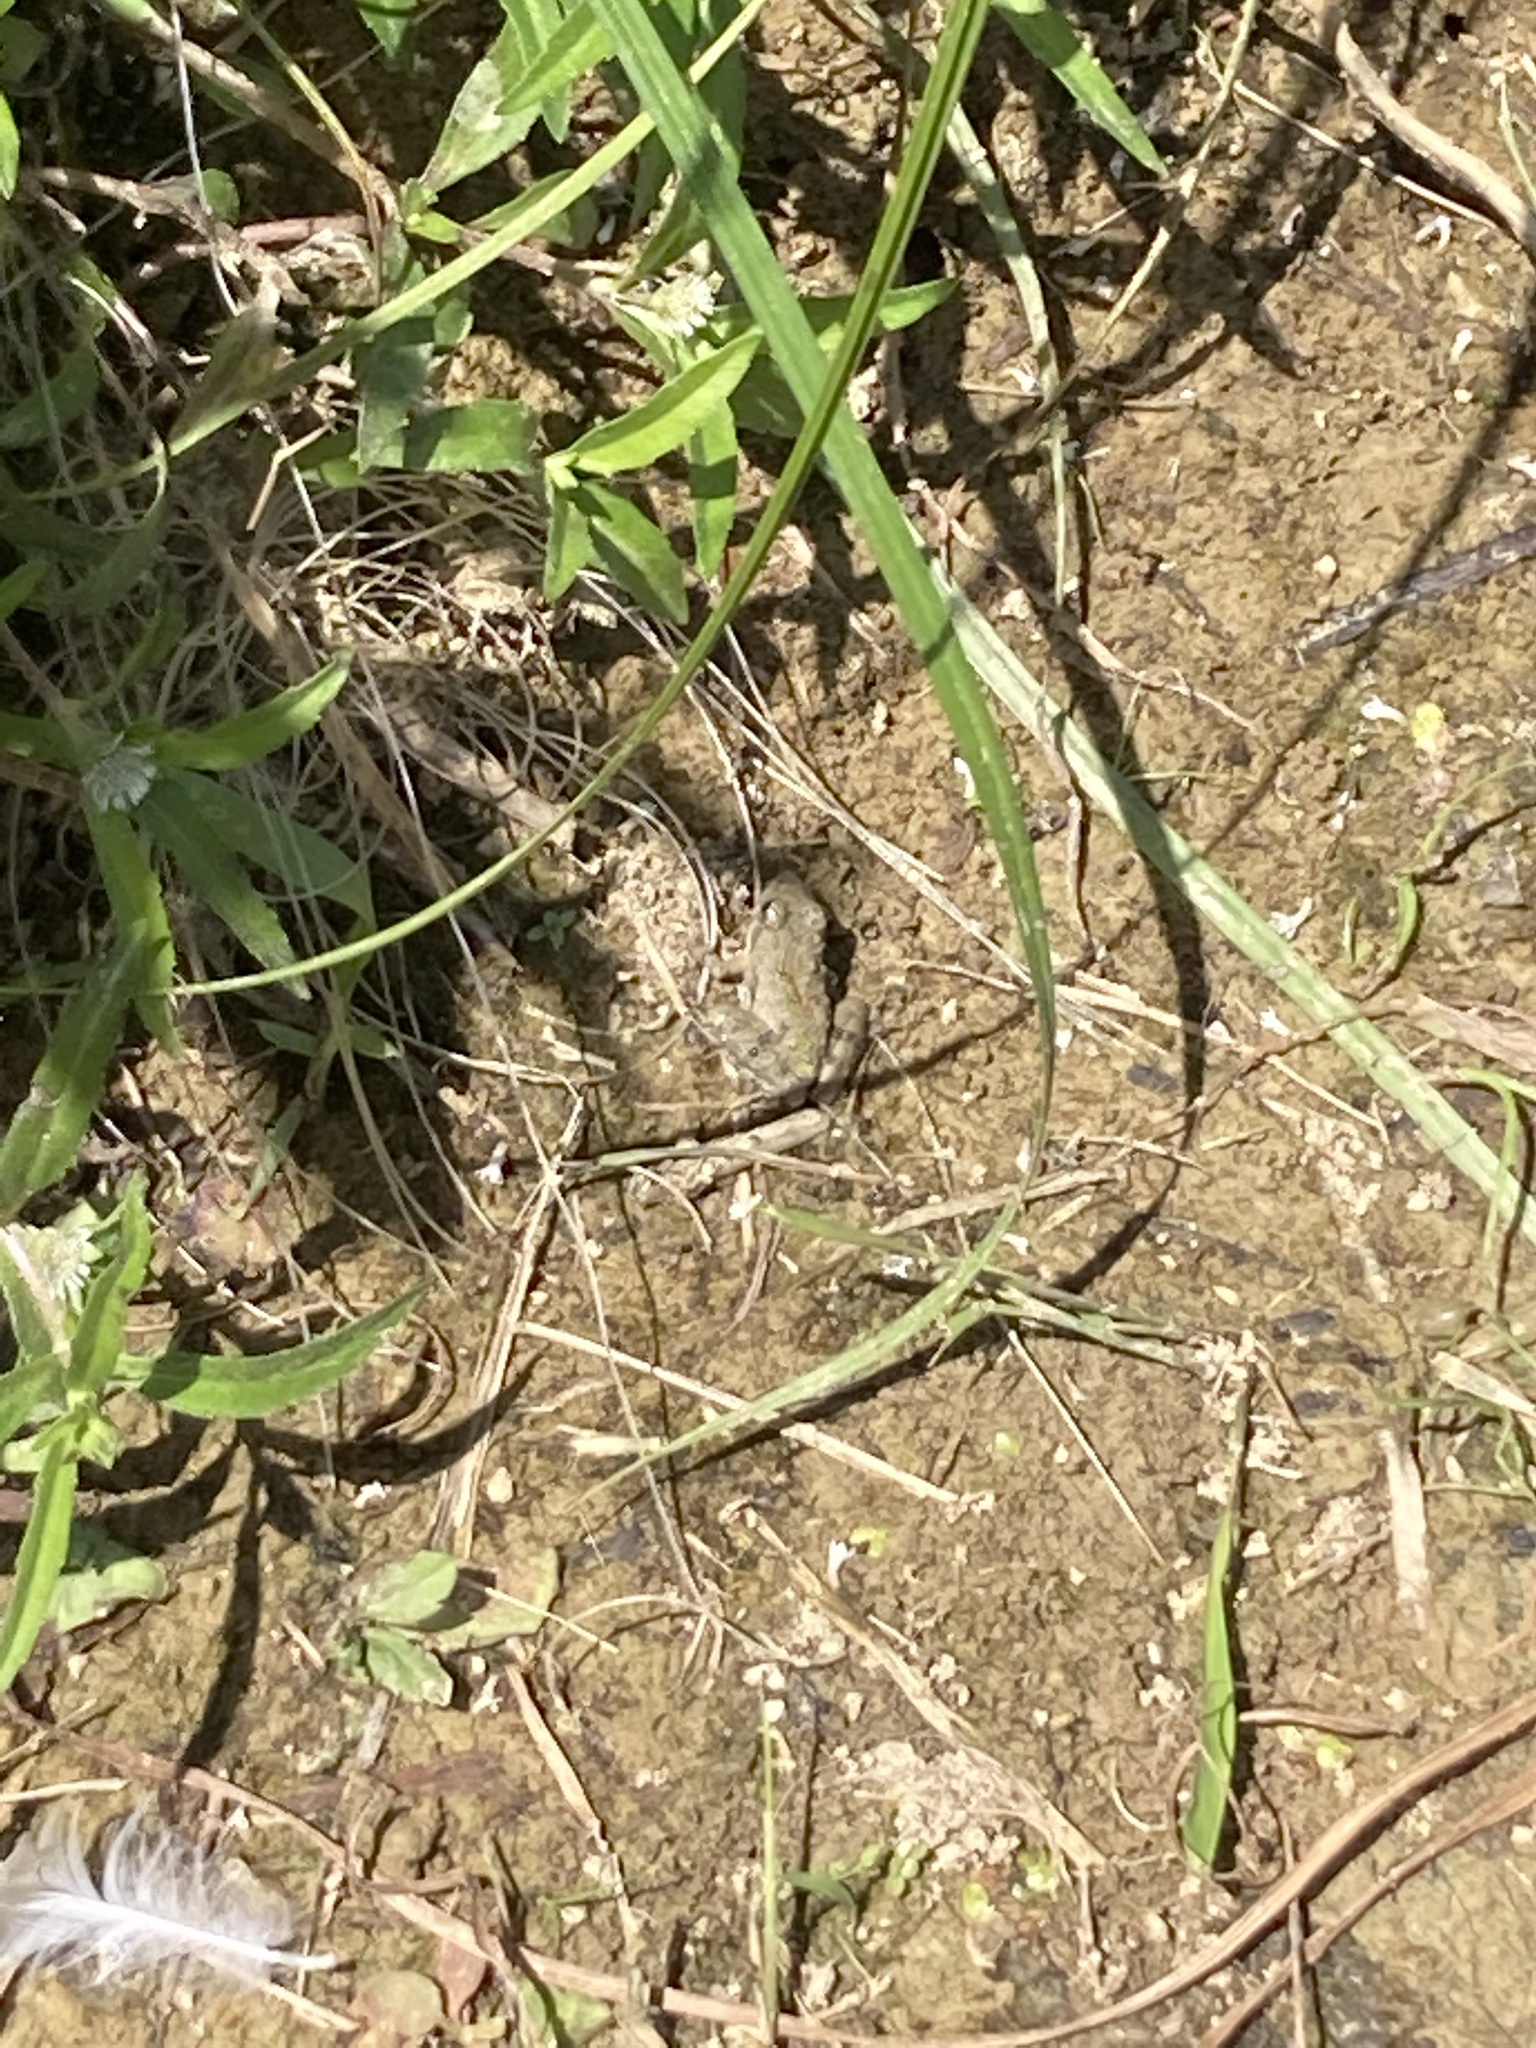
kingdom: Animalia
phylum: Chordata
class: Amphibia
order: Anura
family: Hylidae
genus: Acris
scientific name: Acris blanchardi
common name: Blanchard's cricket frog
